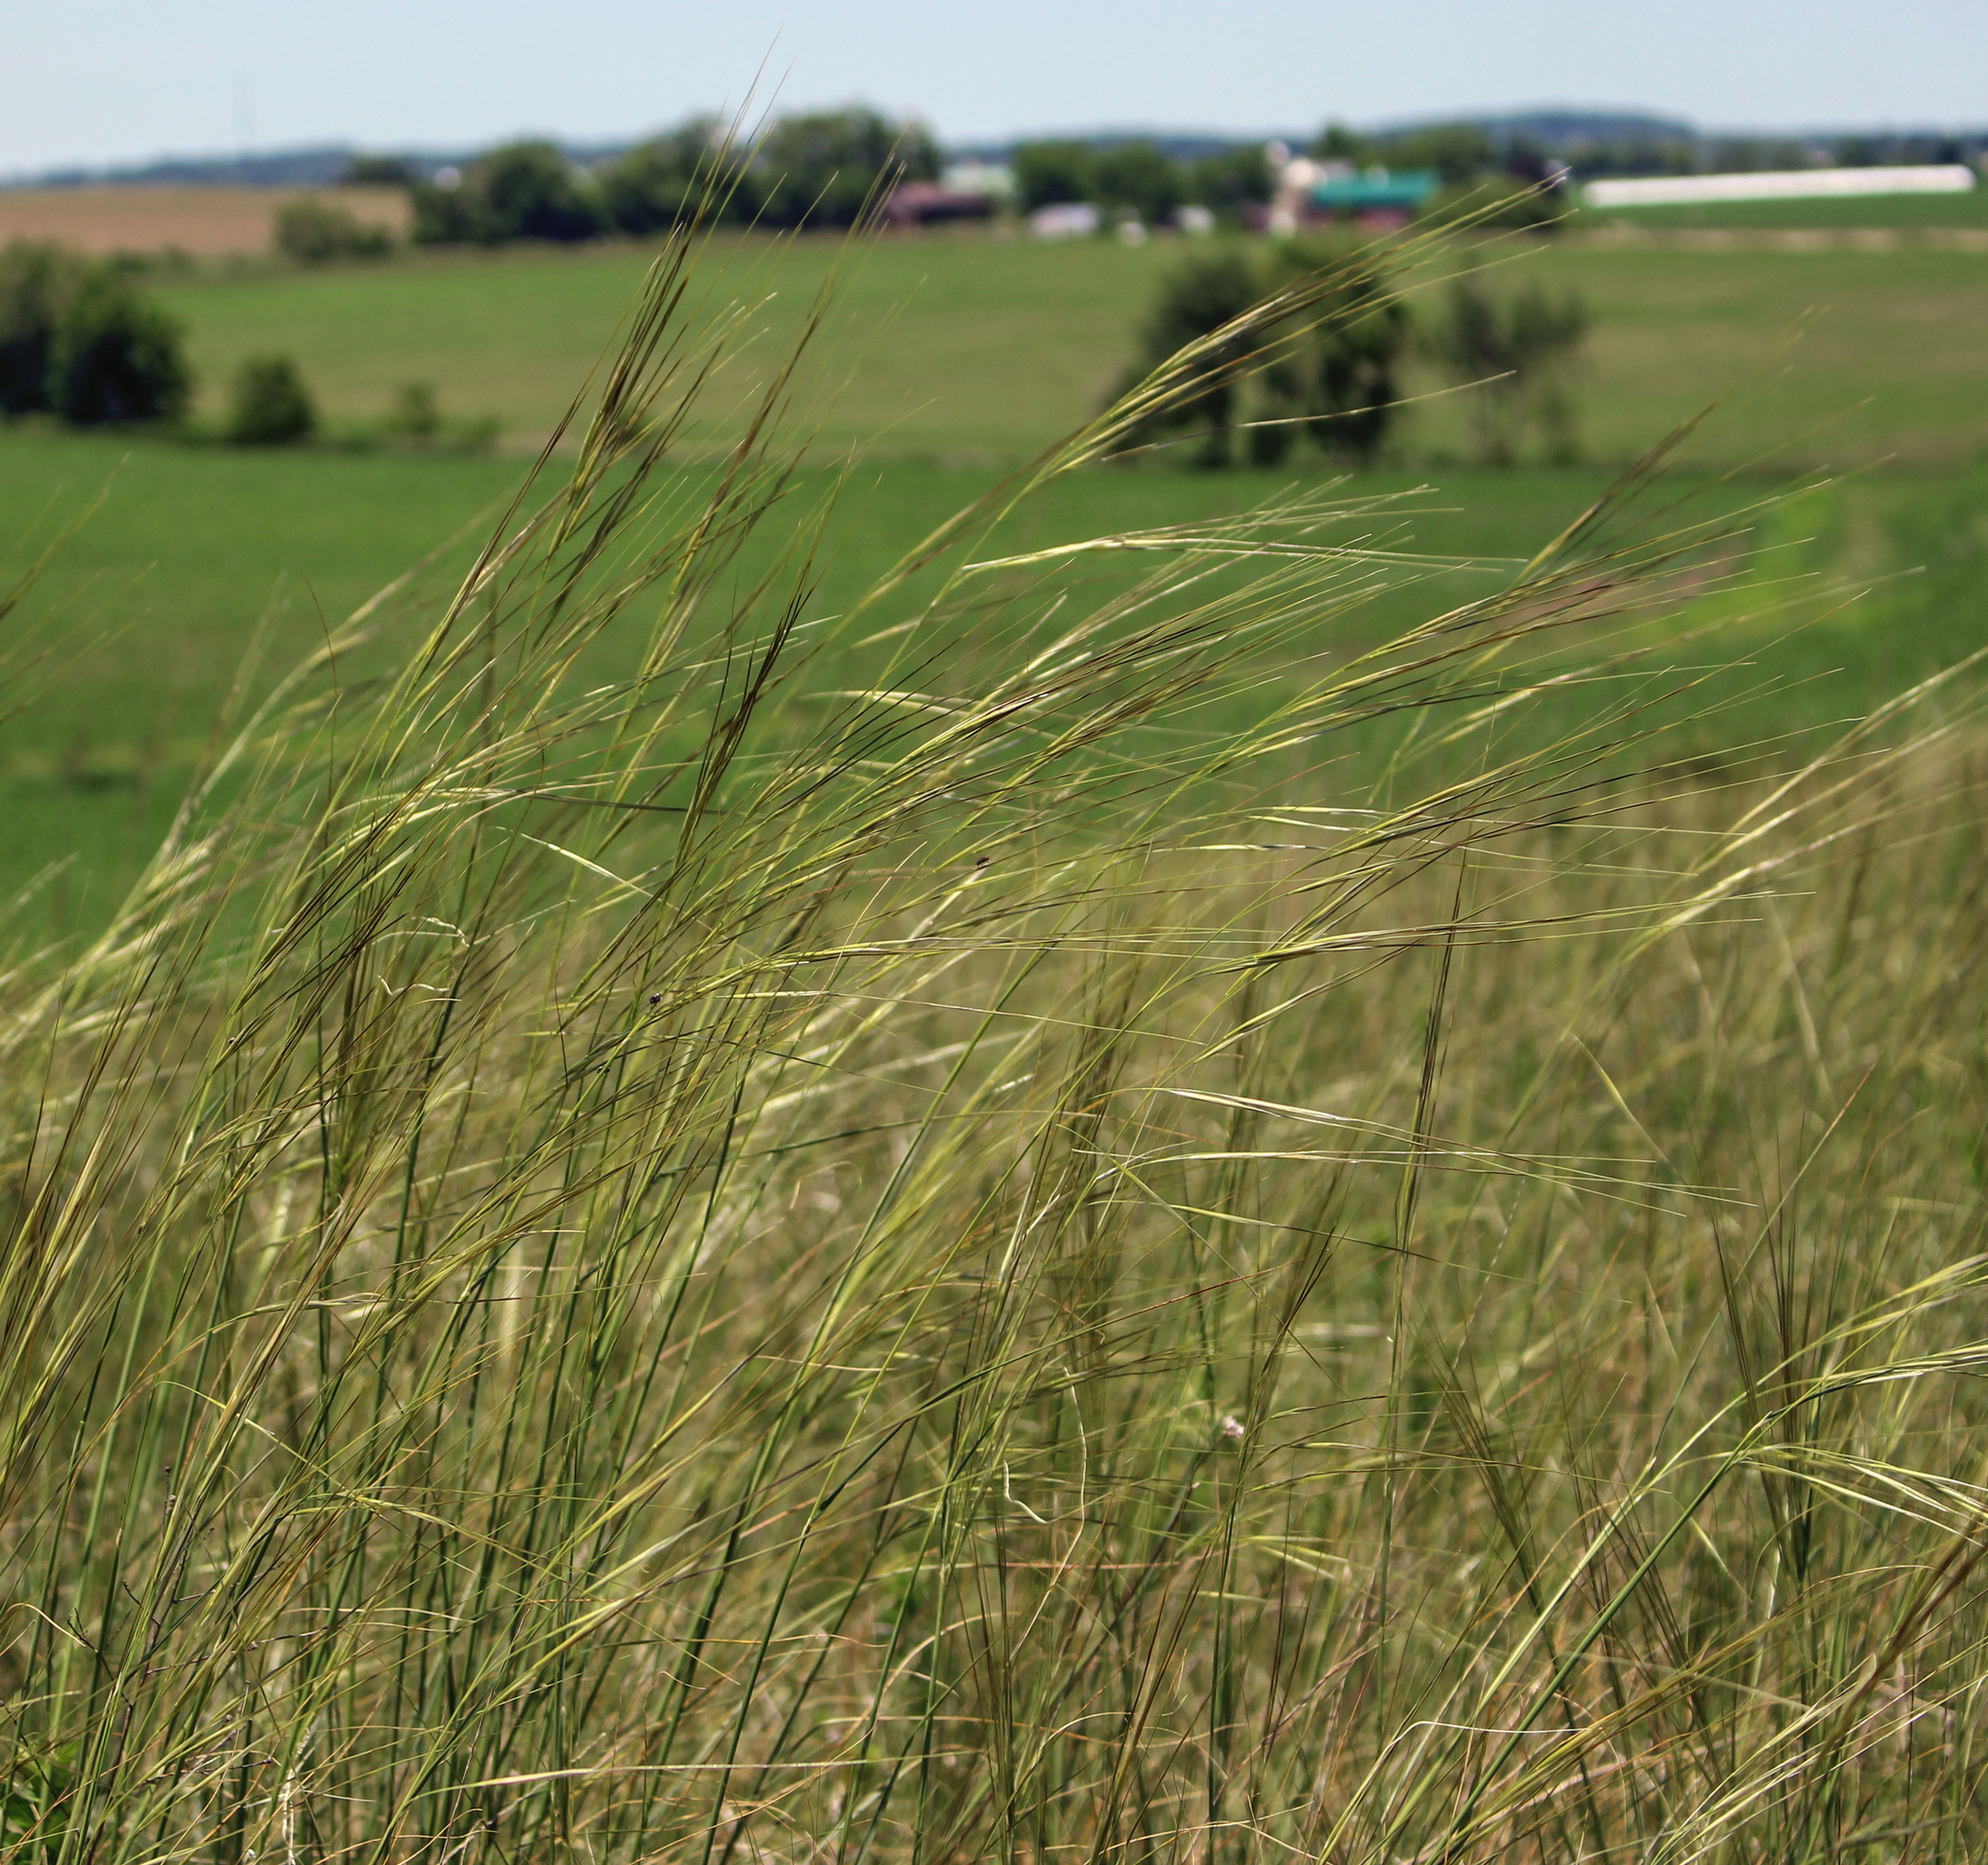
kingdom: Plantae
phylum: Tracheophyta
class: Liliopsida
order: Poales
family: Poaceae
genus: Hesperostipa
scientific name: Hesperostipa spartea
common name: Porcupine grass
